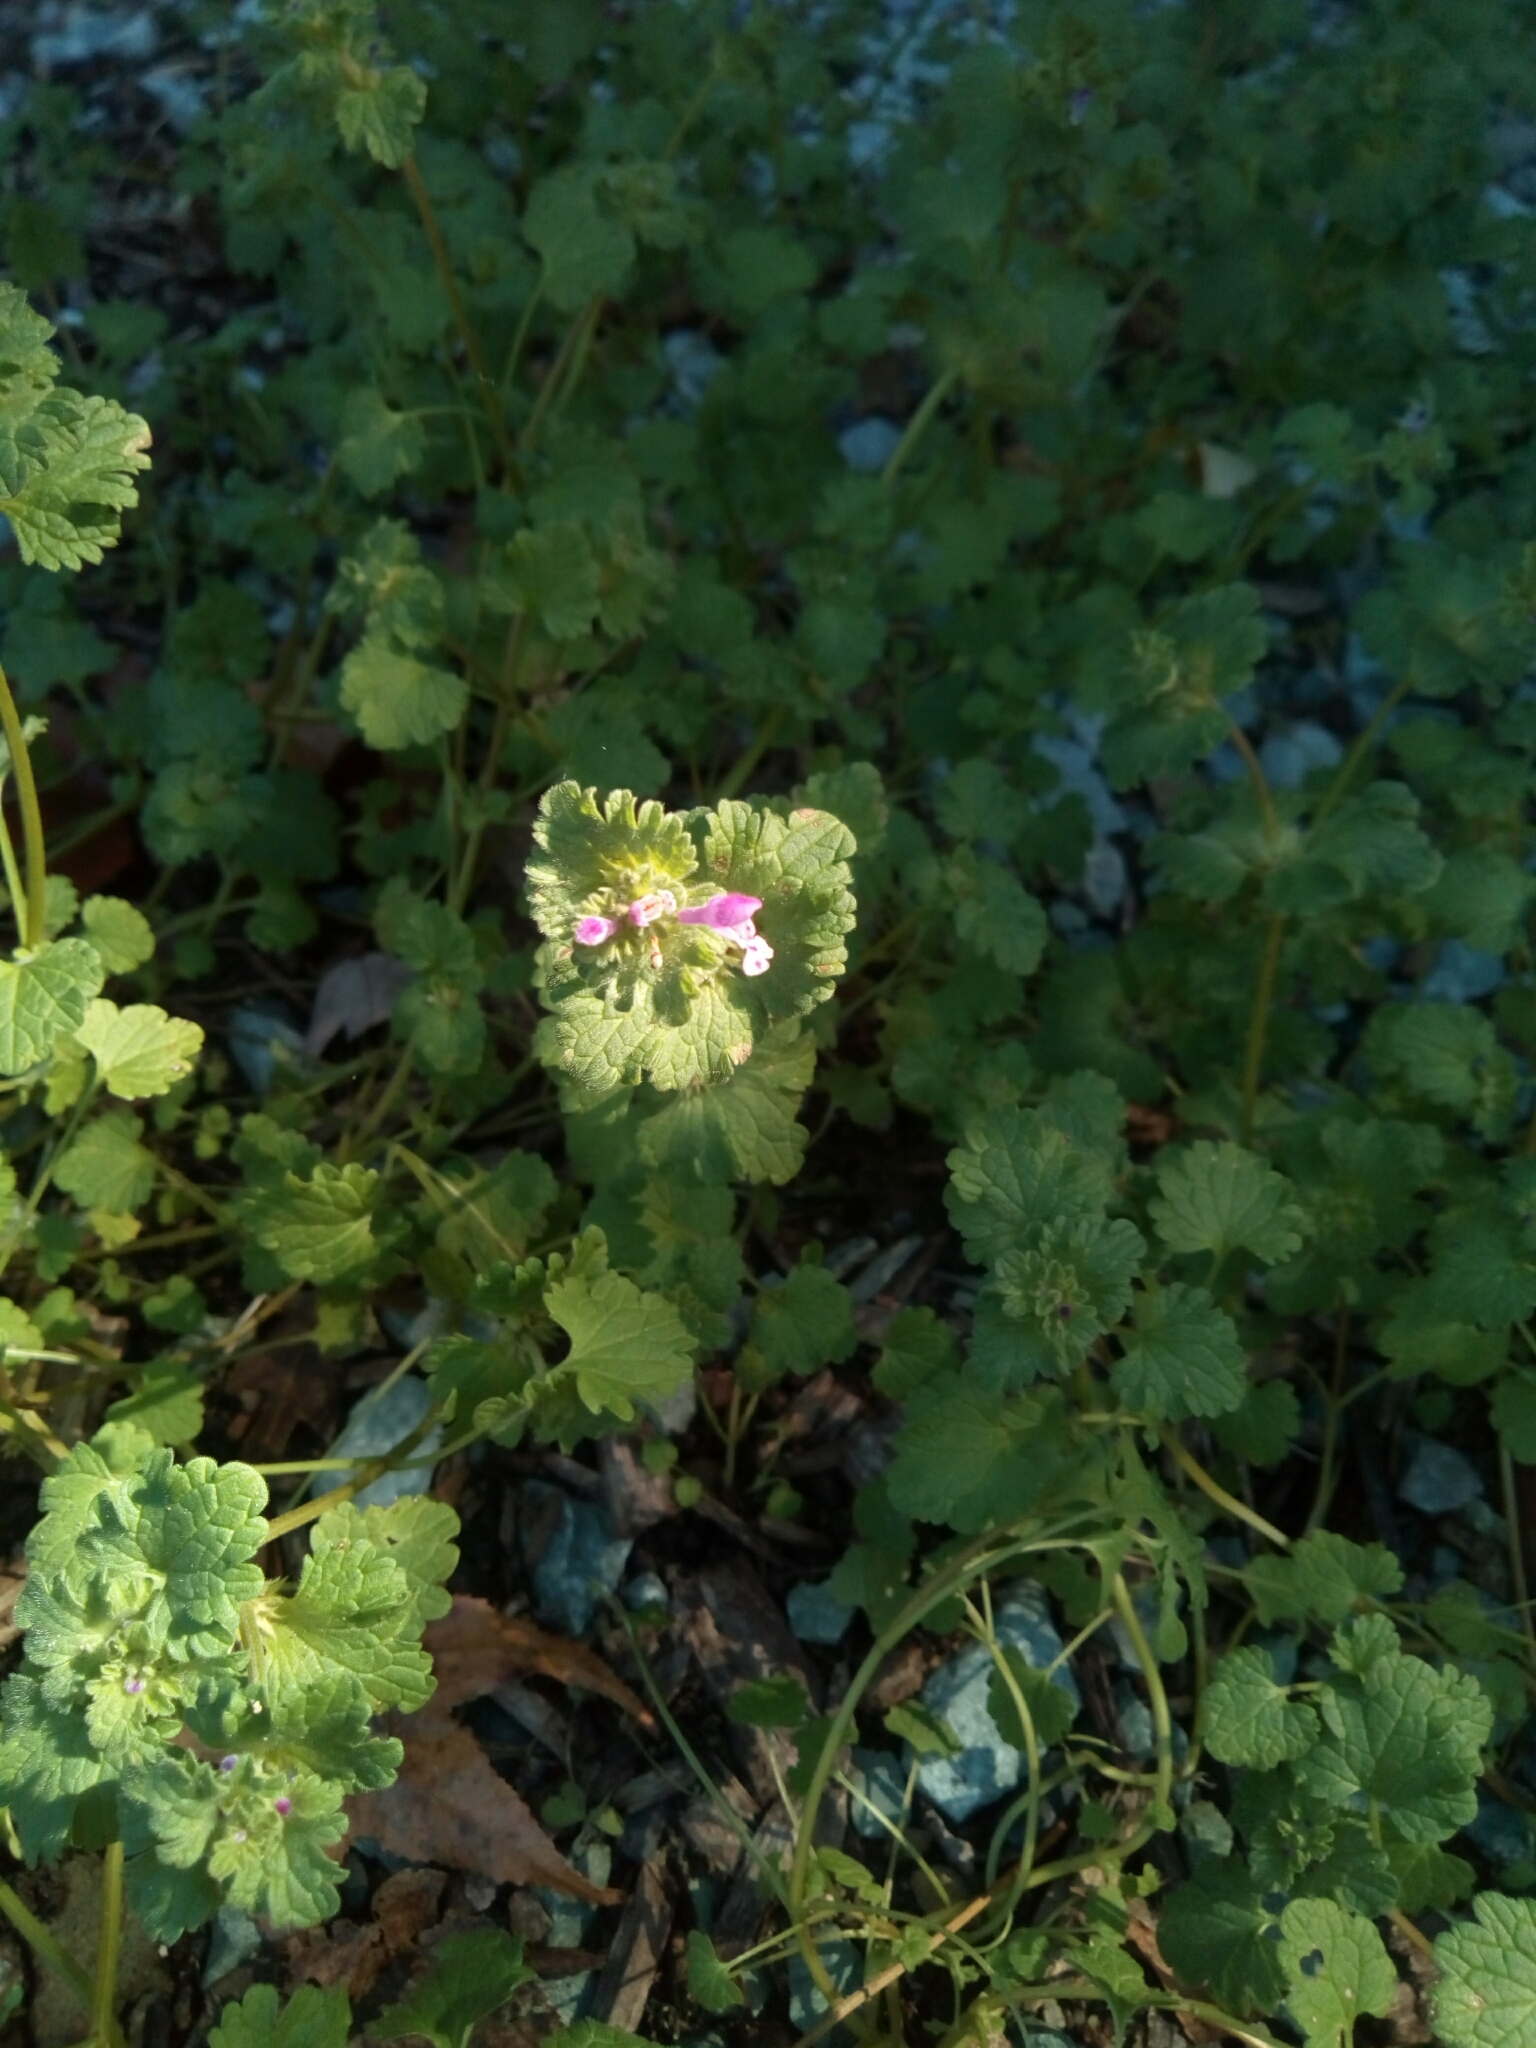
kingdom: Plantae
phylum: Tracheophyta
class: Magnoliopsida
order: Lamiales
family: Lamiaceae
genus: Lamium
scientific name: Lamium amplexicaule
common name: Henbit dead-nettle
